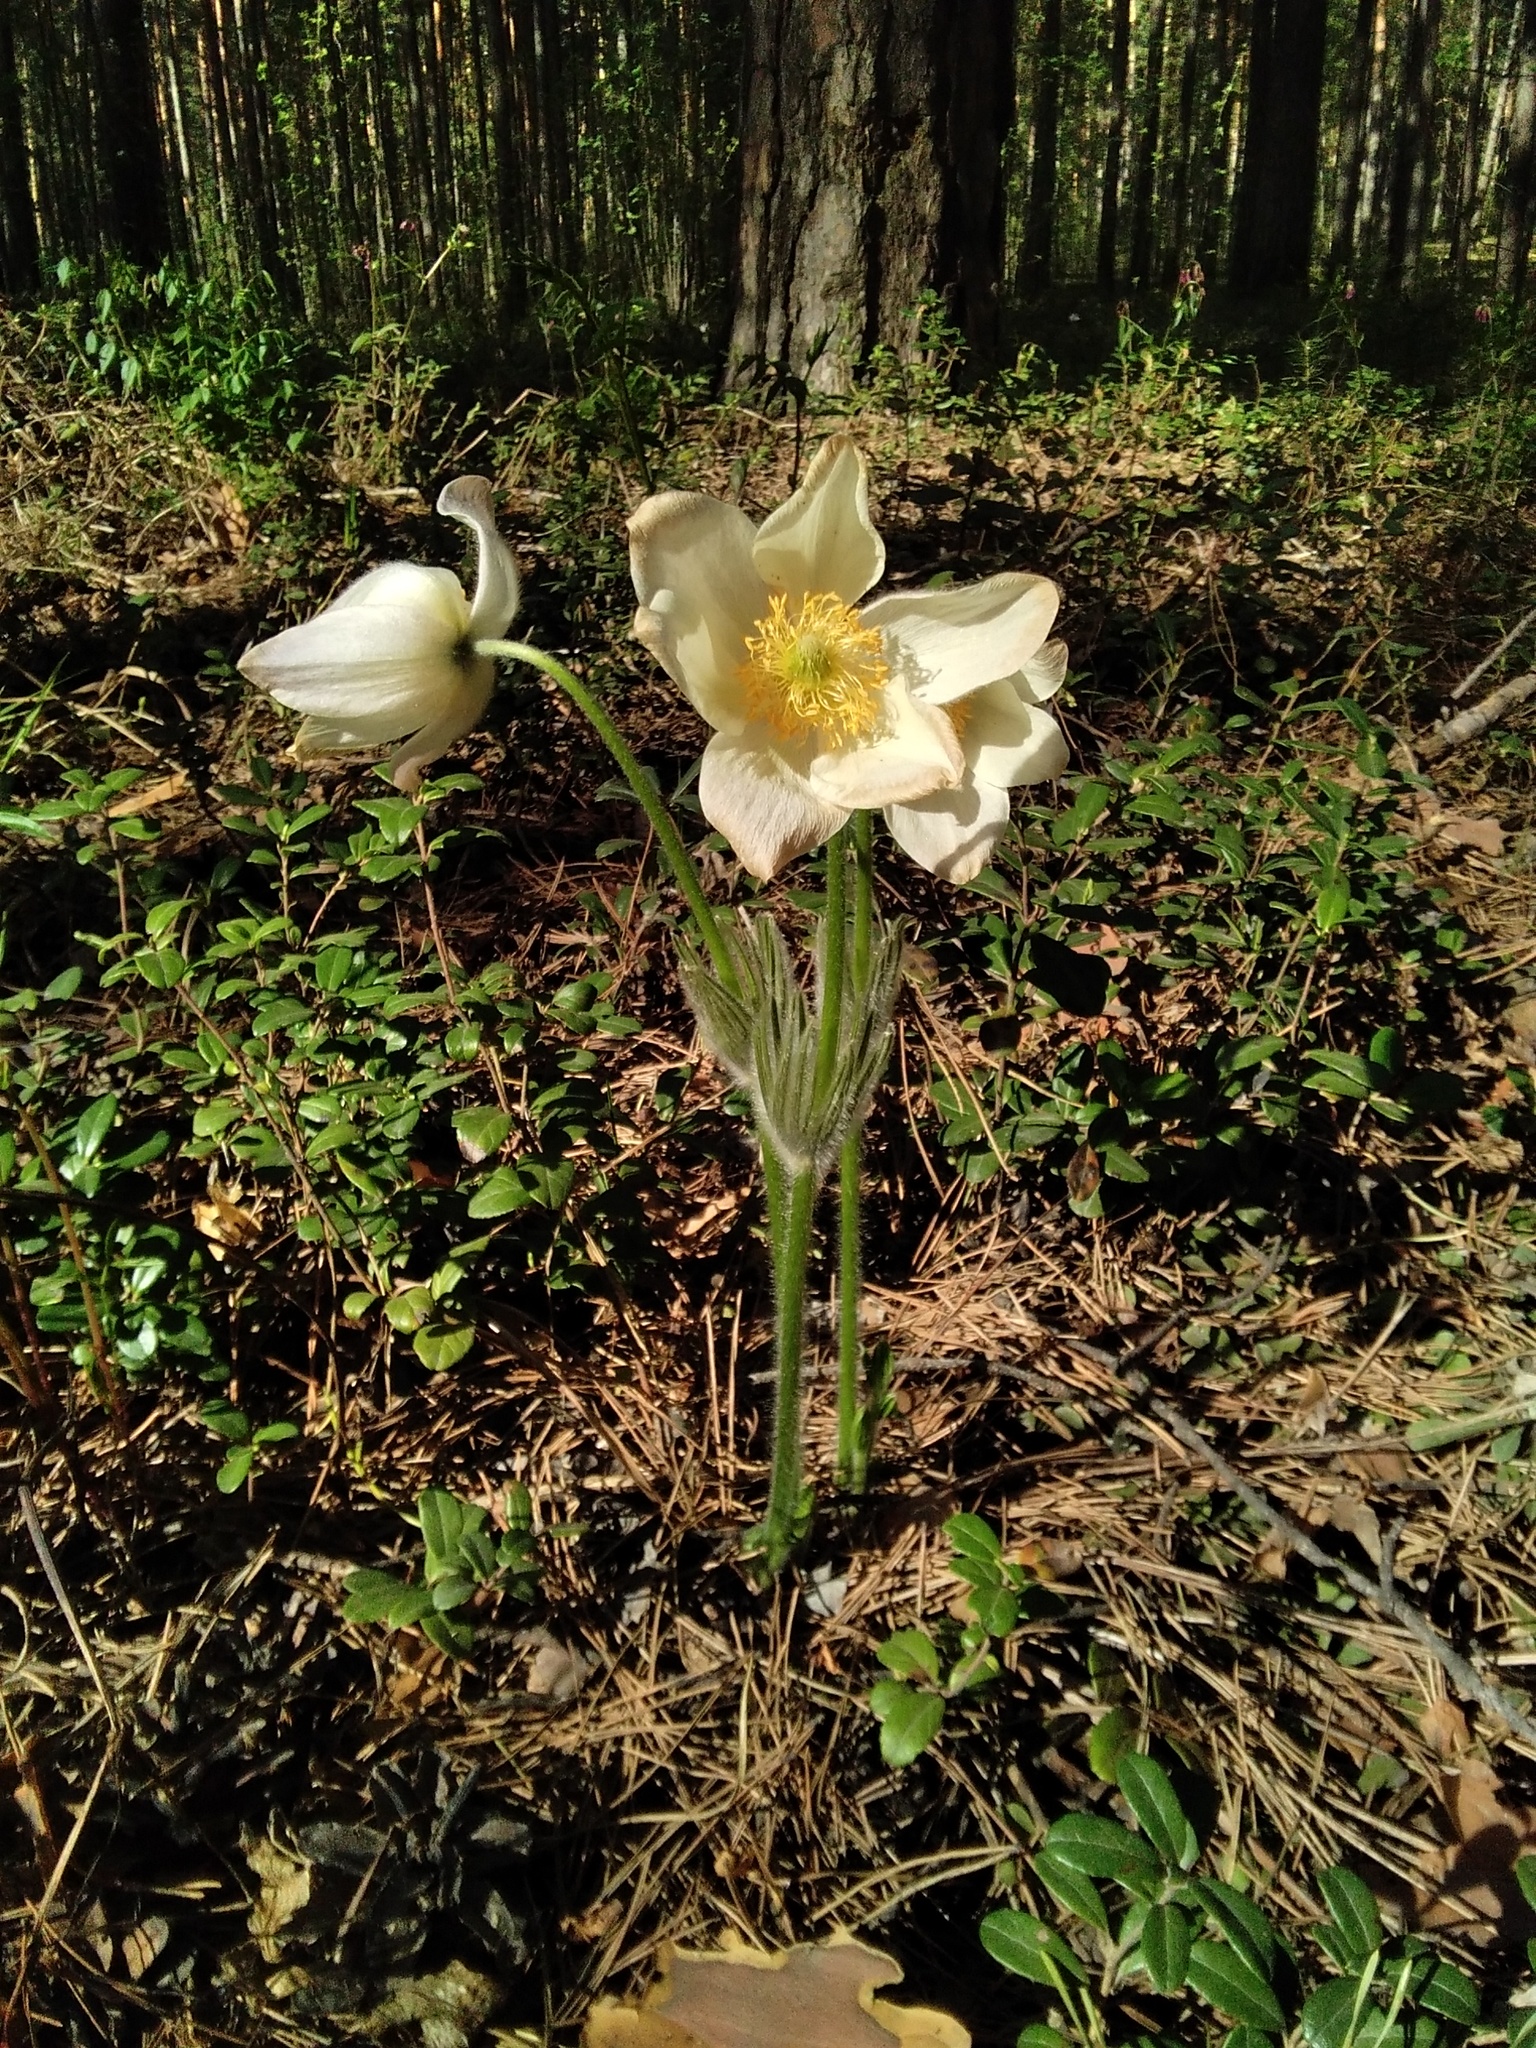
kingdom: Plantae
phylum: Tracheophyta
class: Magnoliopsida
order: Ranunculales
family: Ranunculaceae
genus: Pulsatilla
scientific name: Pulsatilla patens
